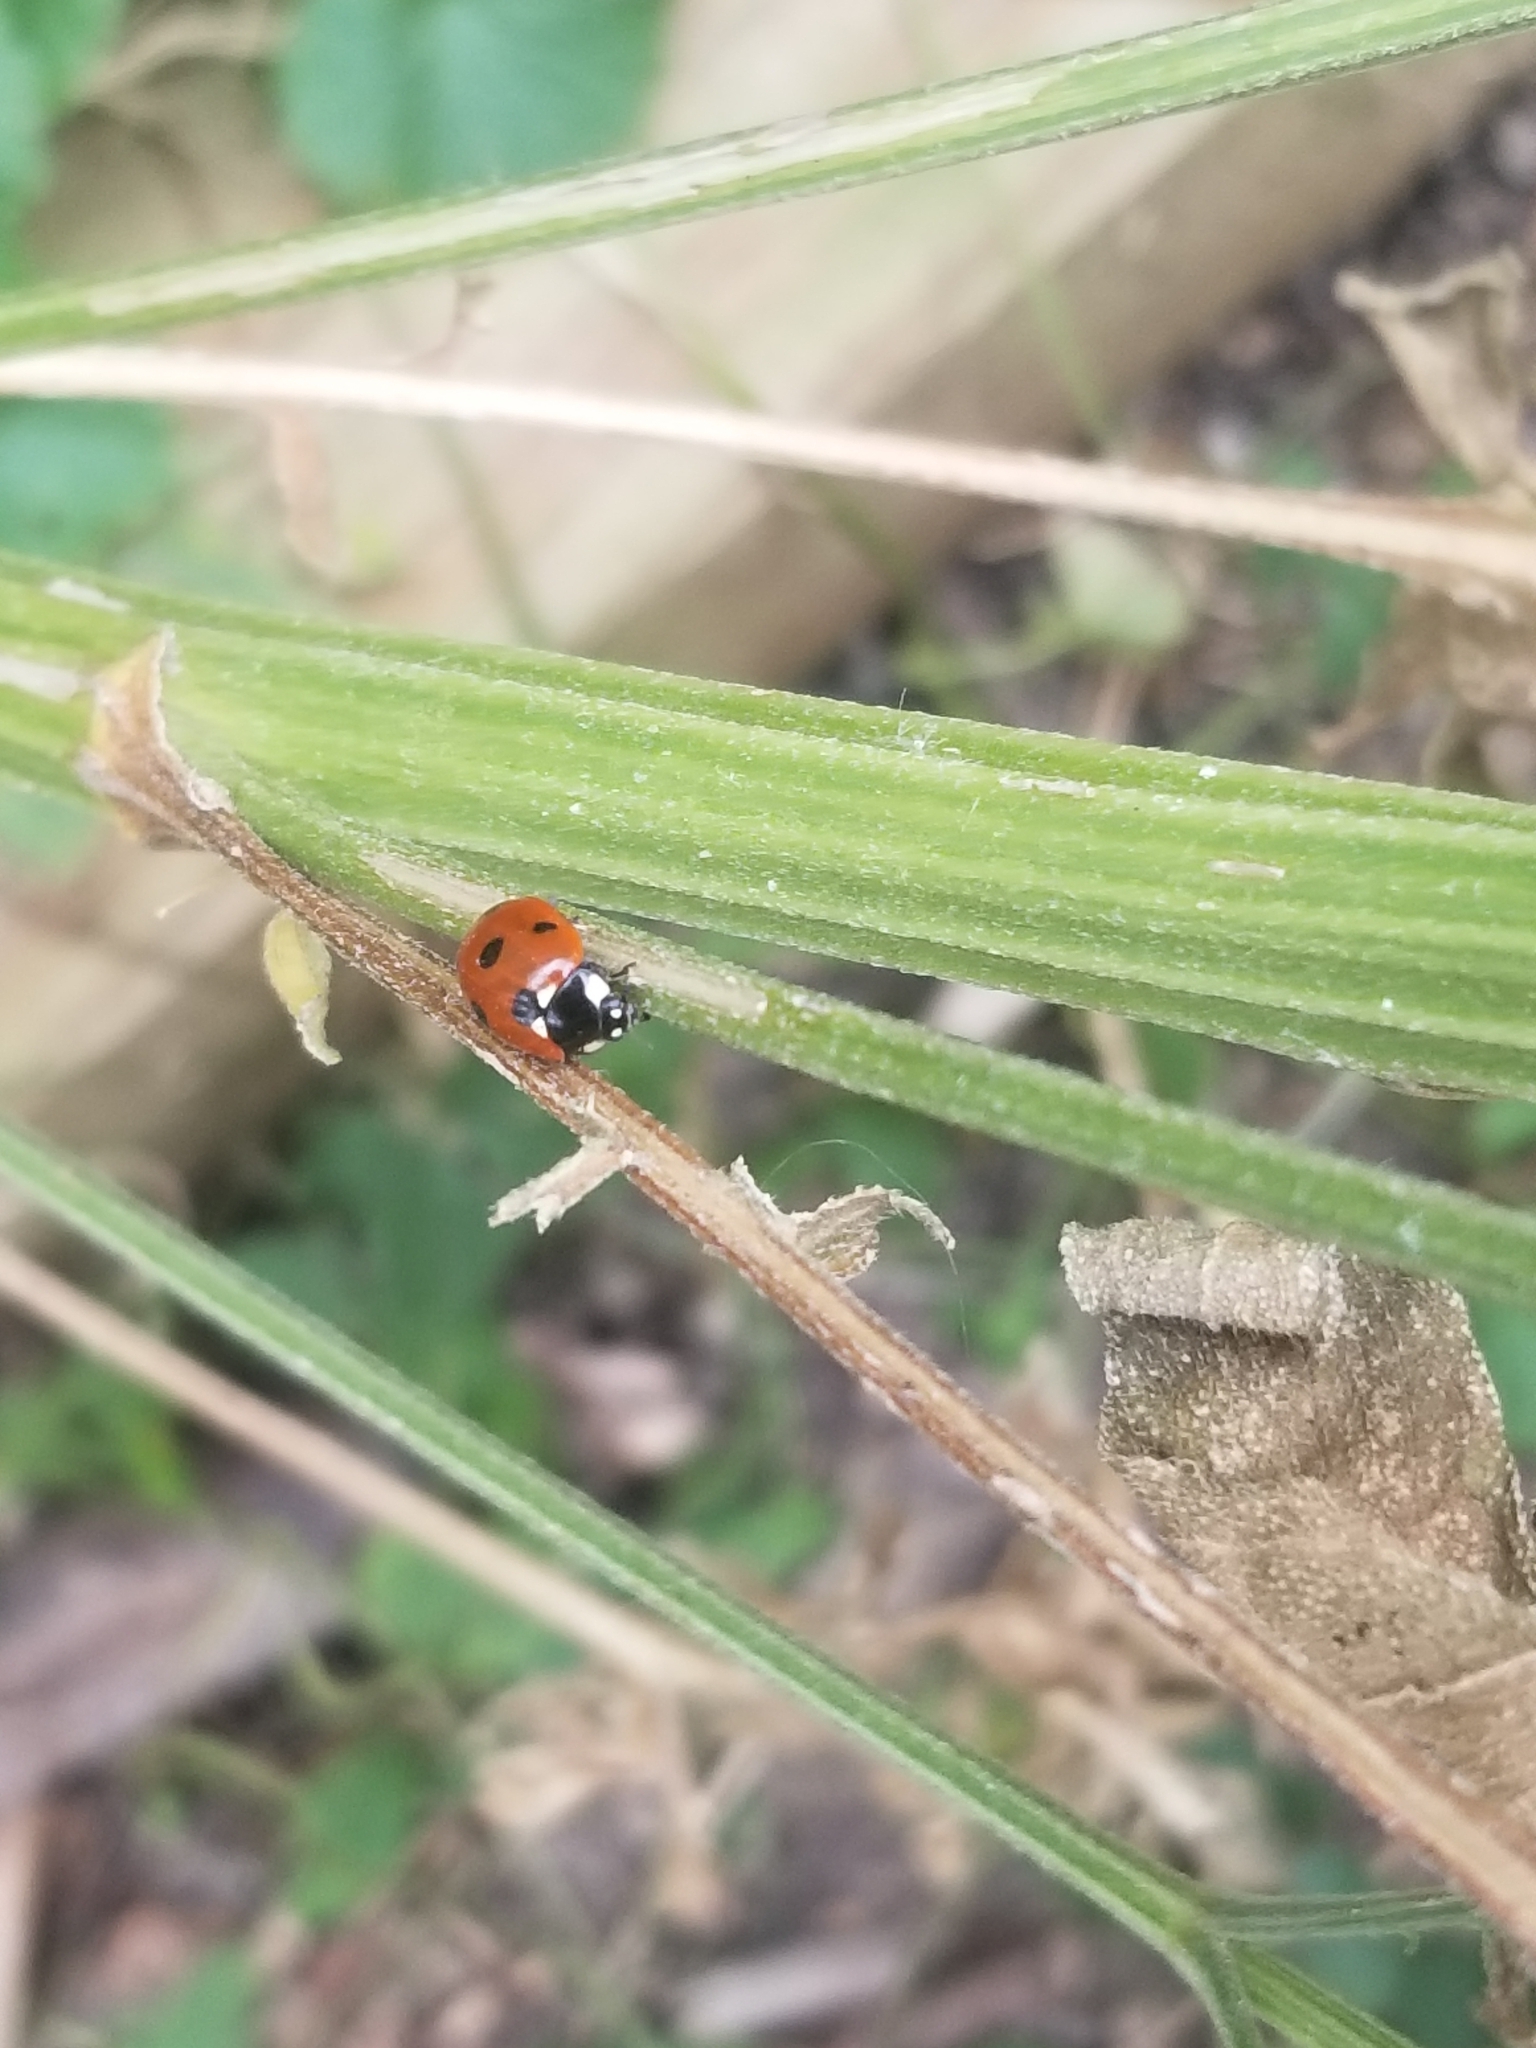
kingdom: Animalia
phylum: Arthropoda
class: Insecta
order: Coleoptera
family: Coccinellidae
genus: Coccinella
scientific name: Coccinella septempunctata
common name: Sevenspotted lady beetle
